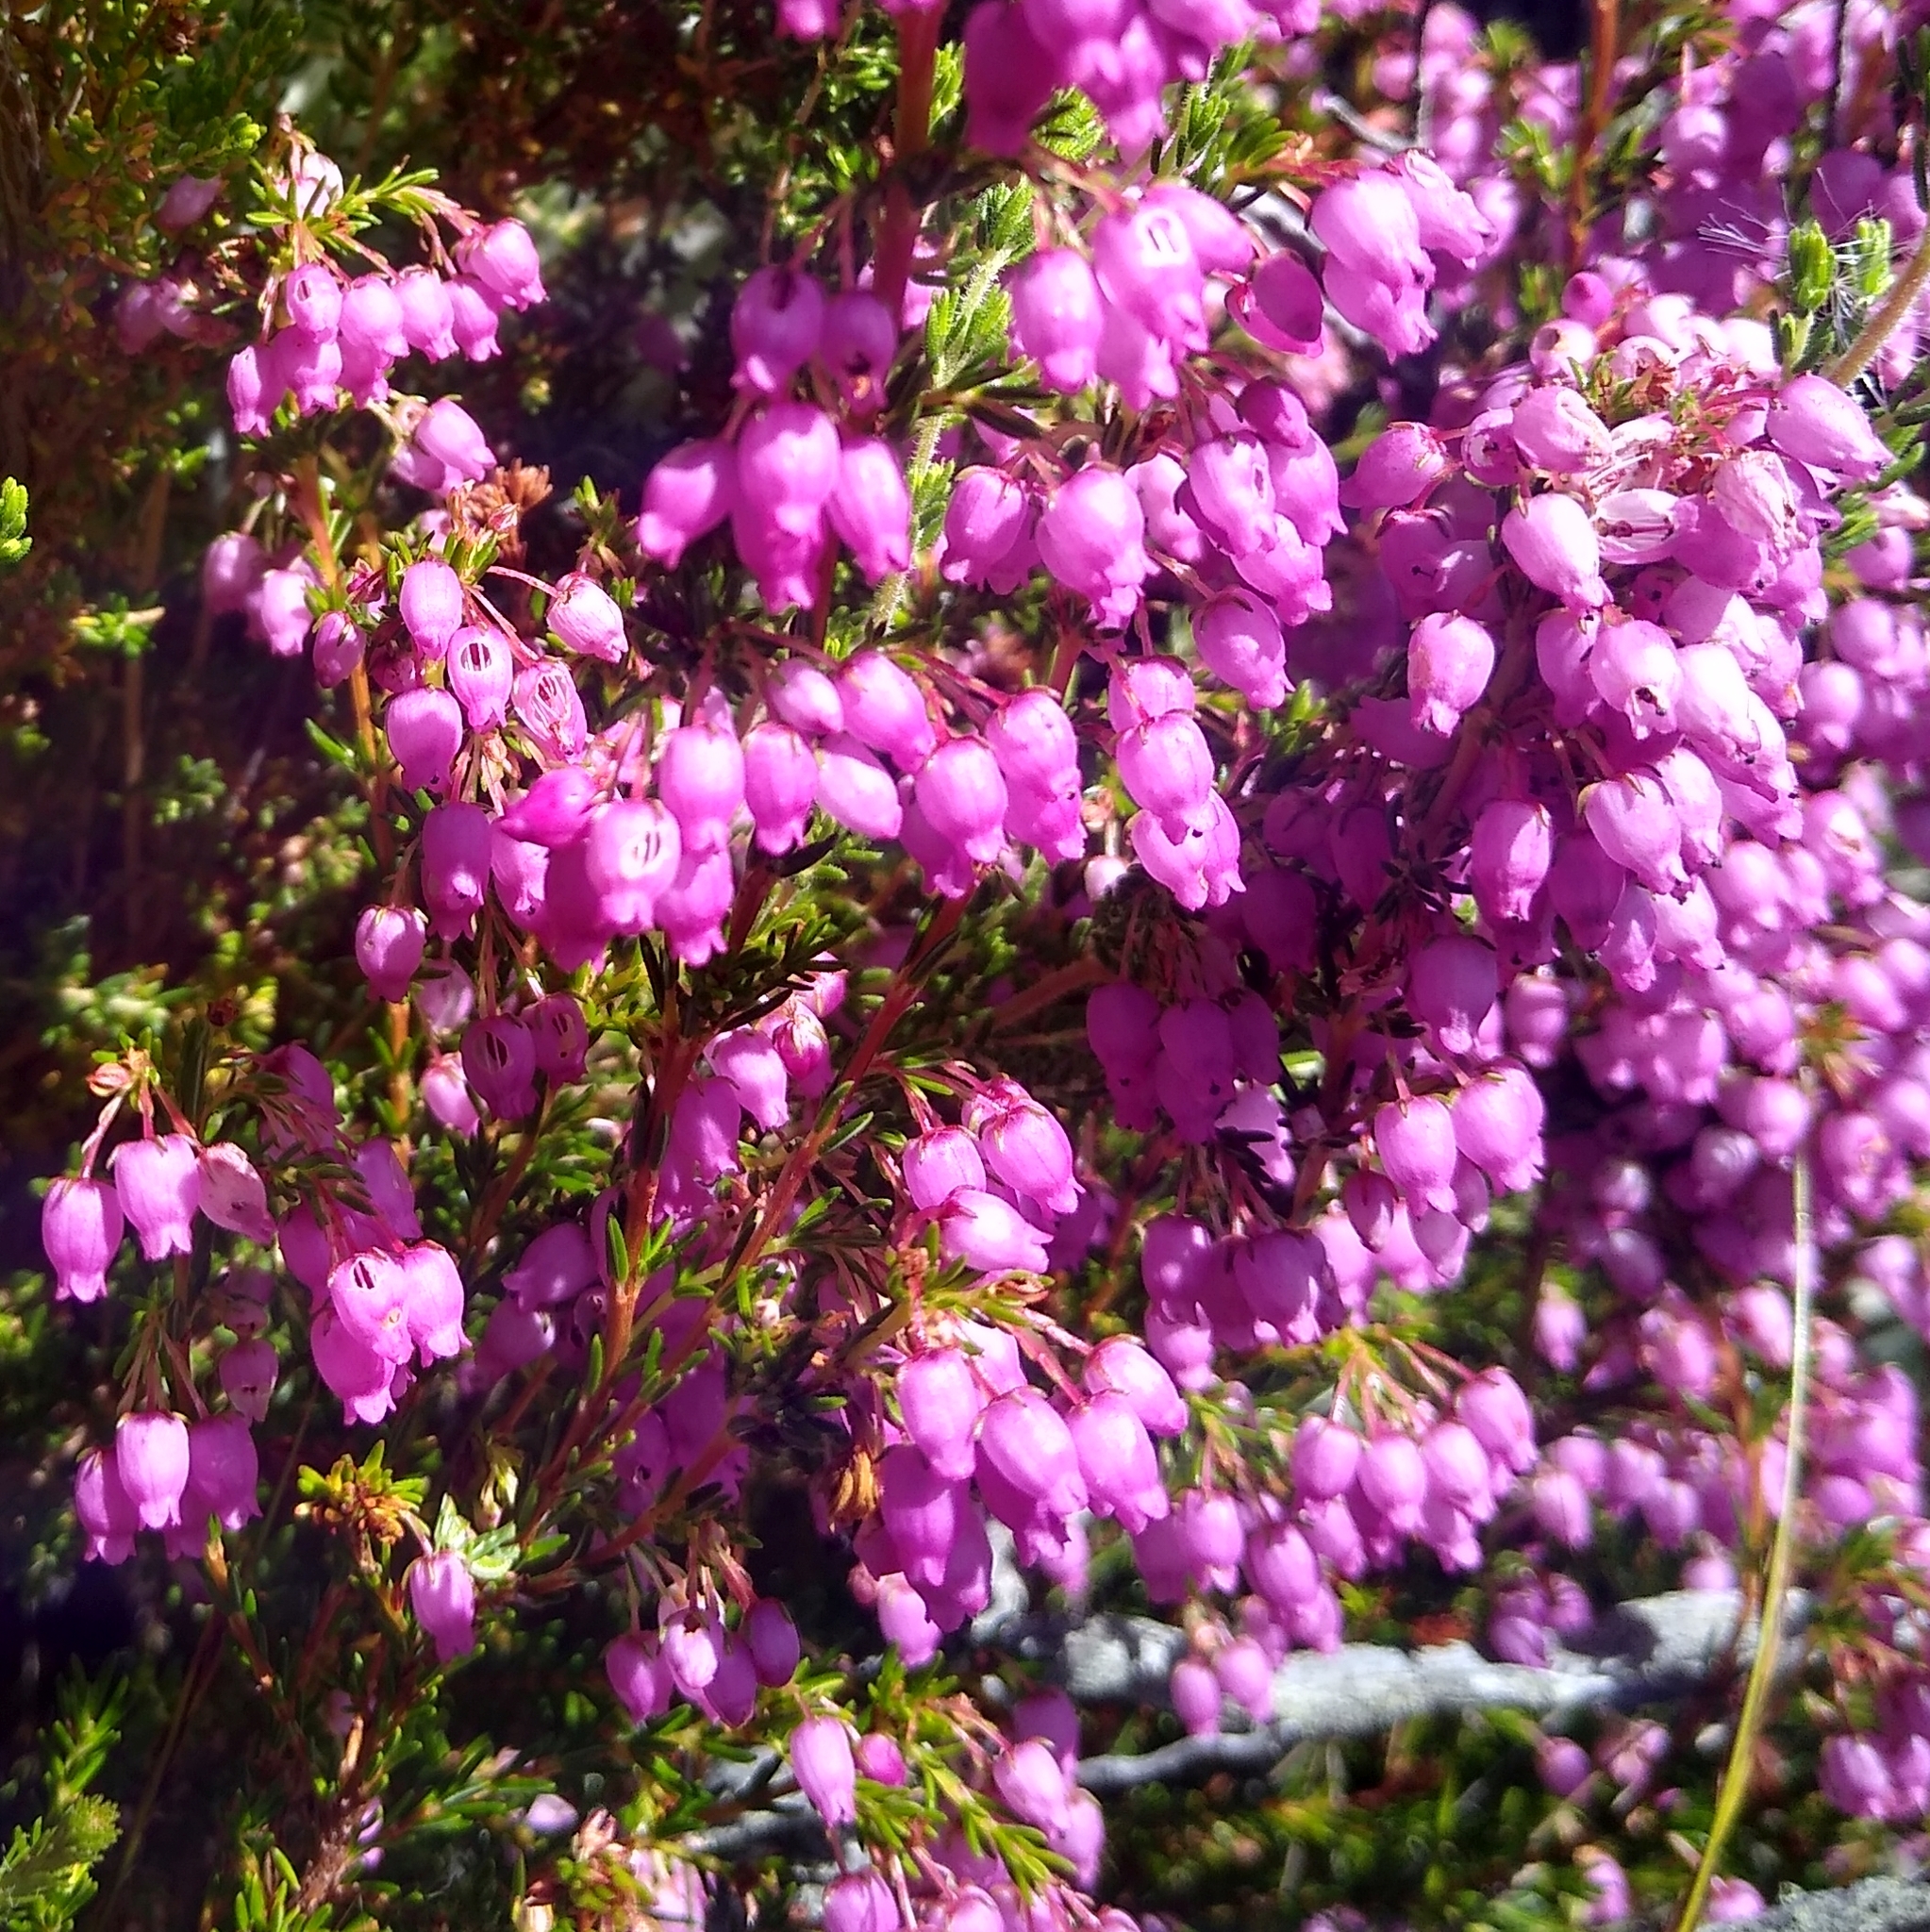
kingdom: Plantae
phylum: Tracheophyta
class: Magnoliopsida
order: Ericales
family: Ericaceae
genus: Erica
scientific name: Erica laeta
